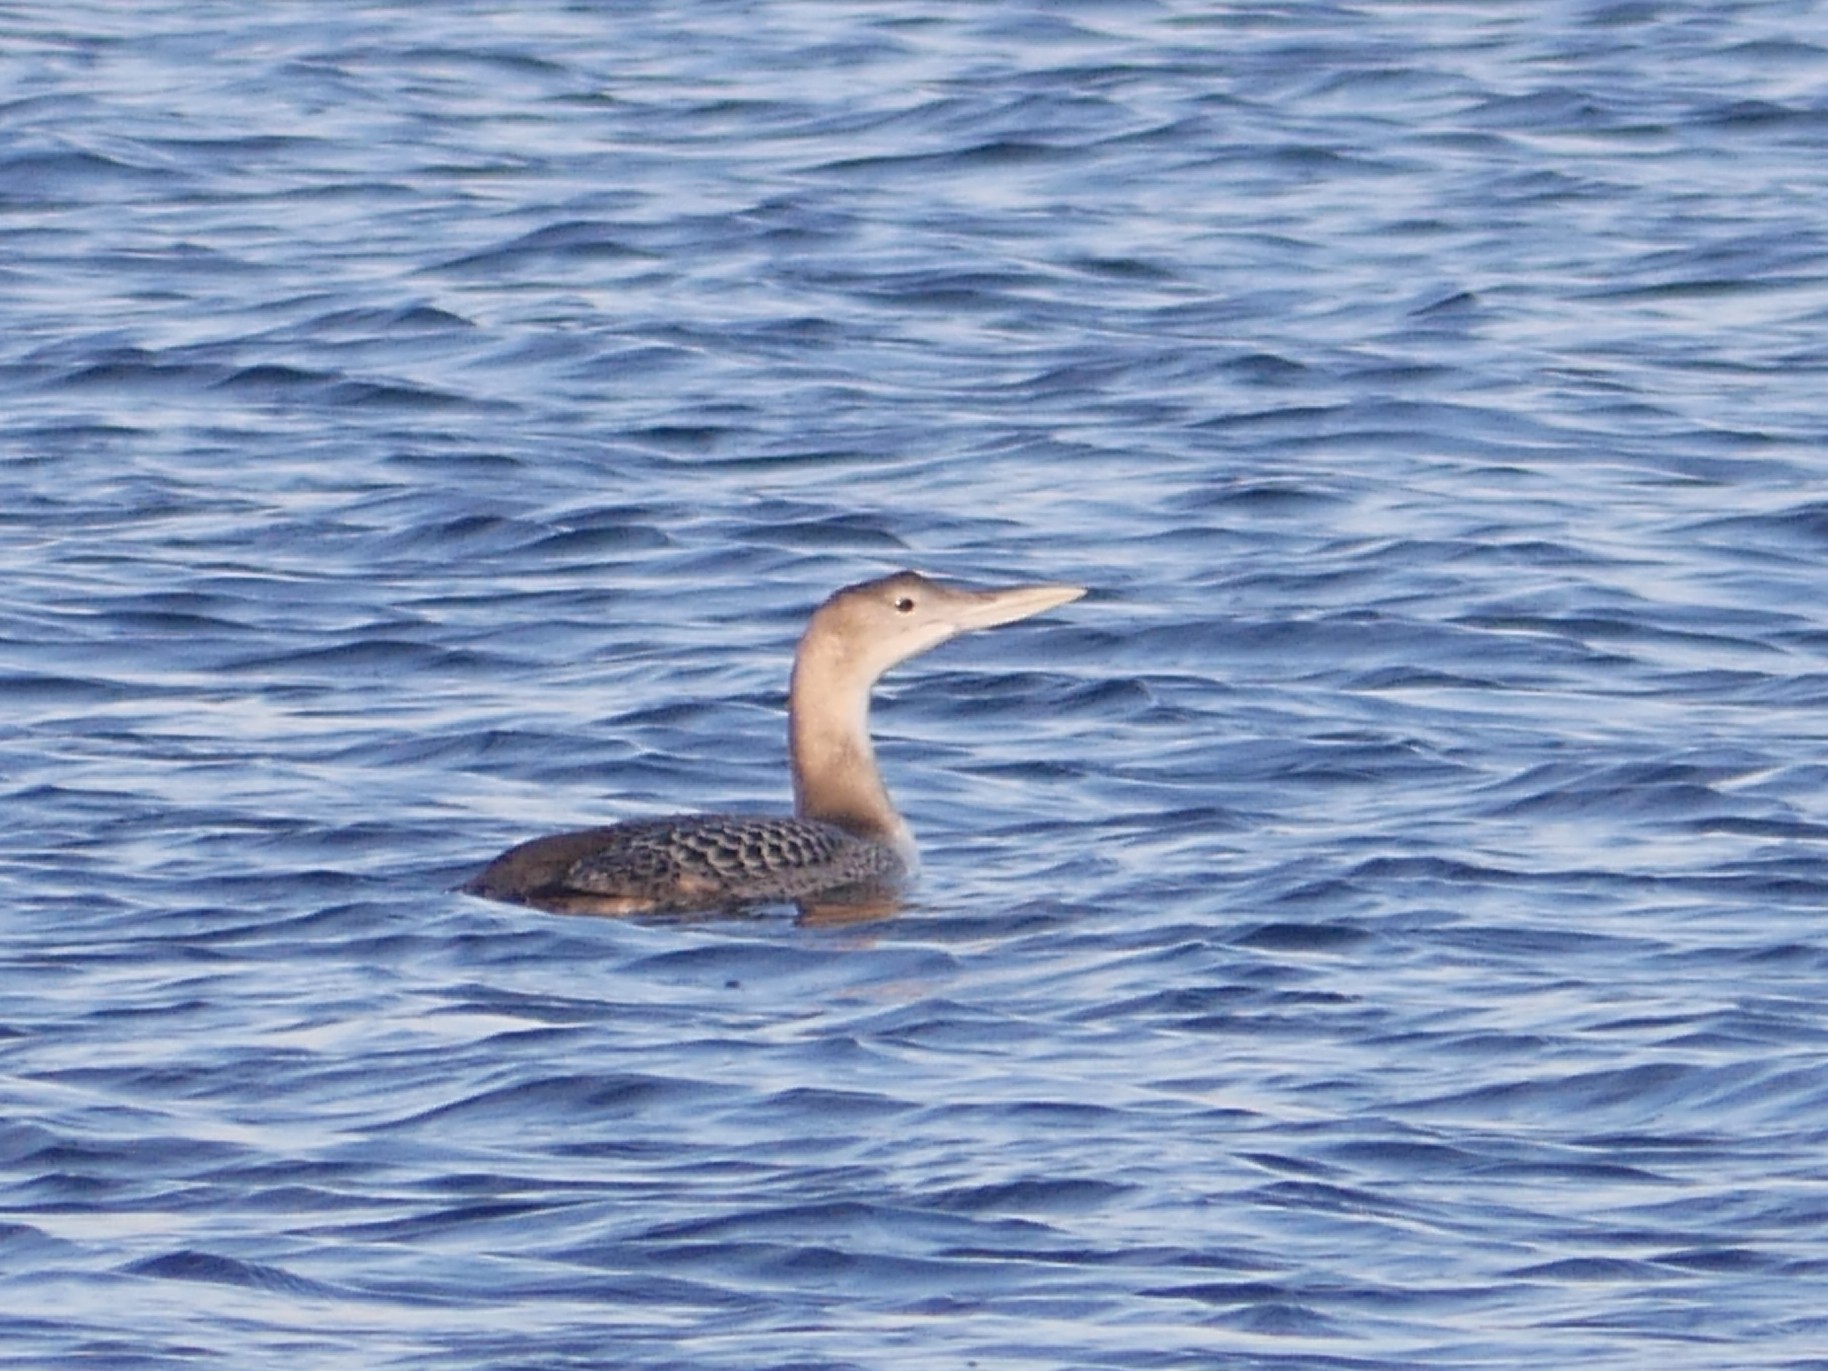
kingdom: Animalia
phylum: Chordata
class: Aves
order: Gaviiformes
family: Gaviidae
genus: Gavia
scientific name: Gavia adamsii
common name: Yellow-billed loon
